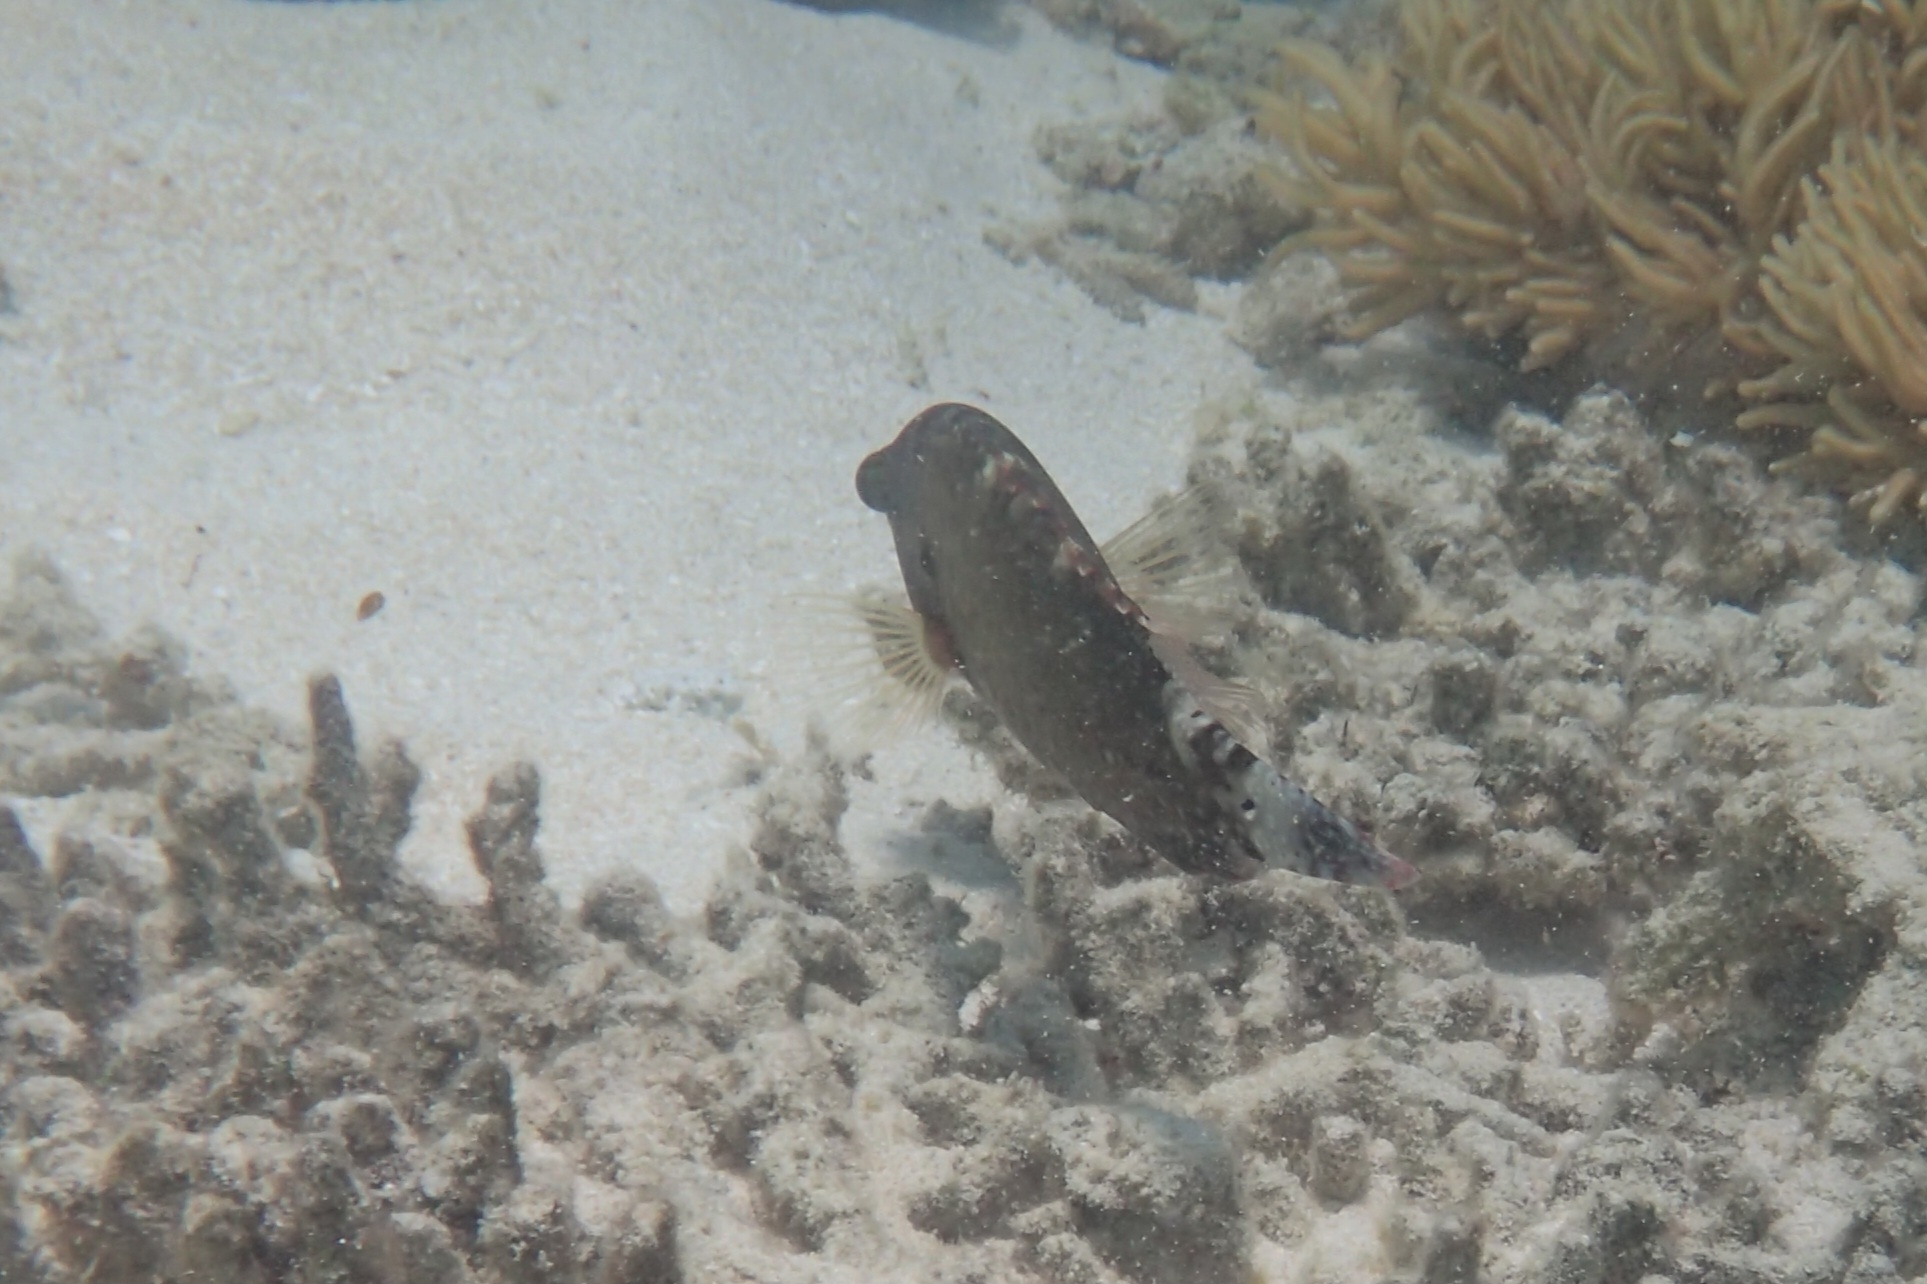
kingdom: Animalia
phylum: Chordata
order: Perciformes
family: Labridae
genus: Cheilinus
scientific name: Cheilinus chlorourus
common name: Floral wrasse
